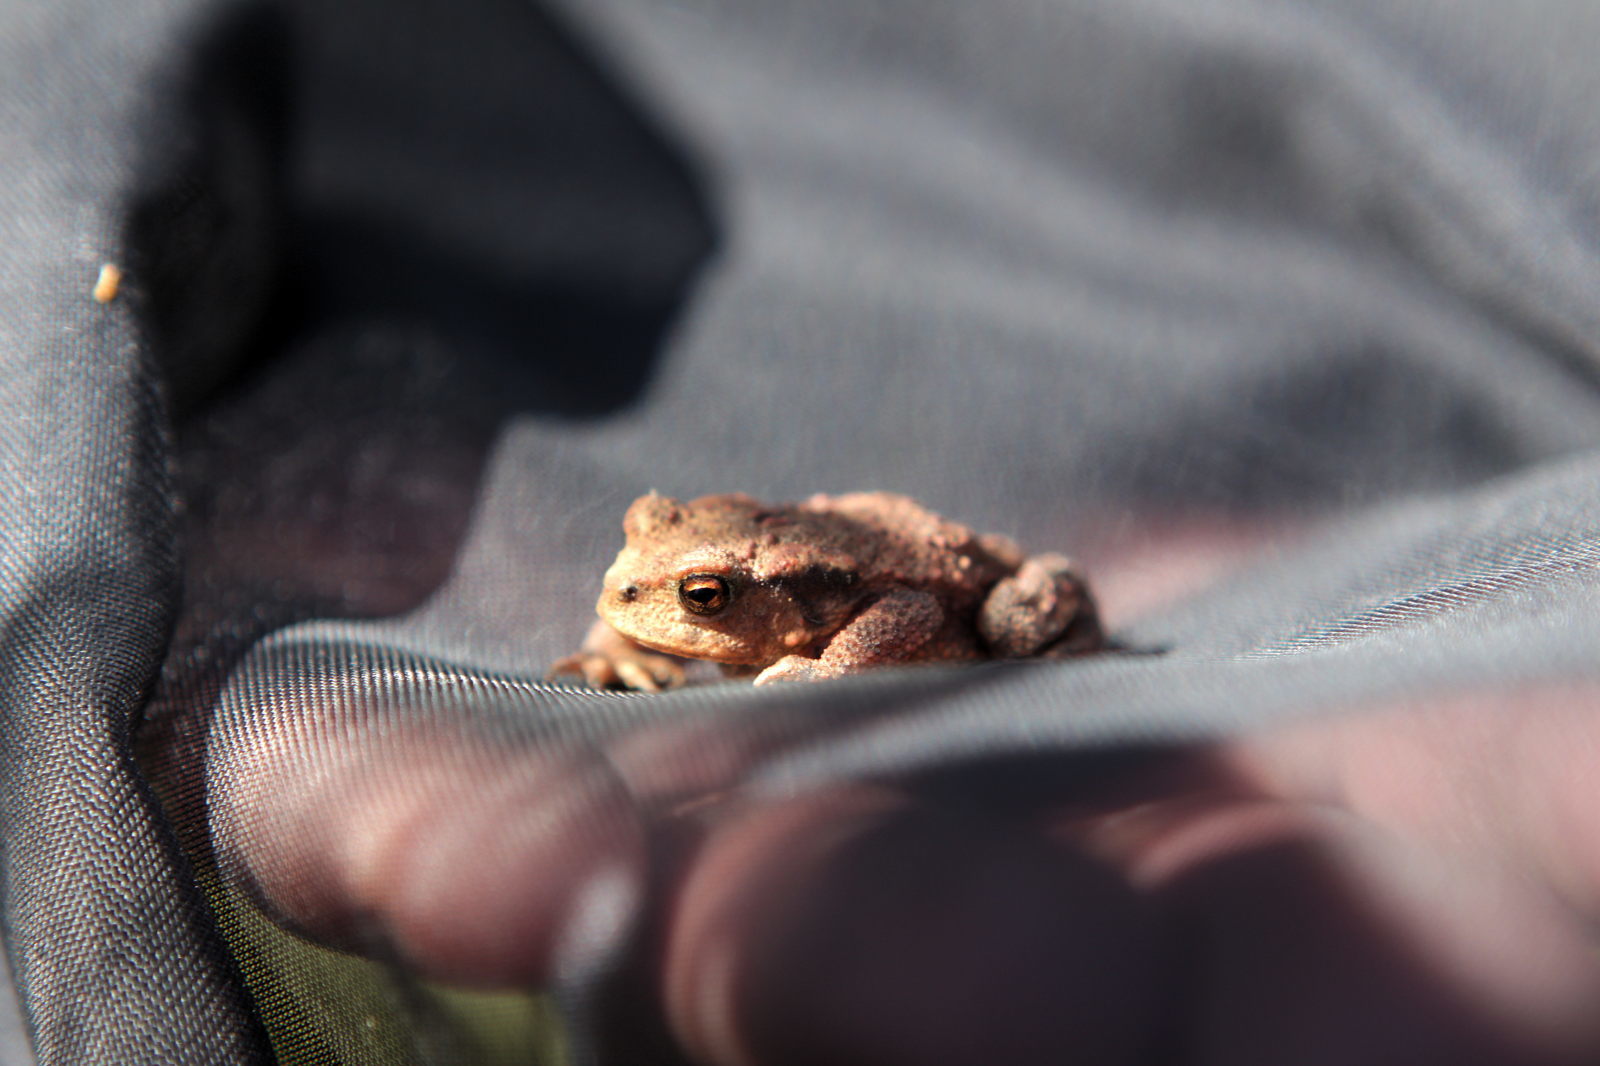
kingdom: Animalia
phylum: Chordata
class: Amphibia
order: Anura
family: Bufonidae
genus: Bufo
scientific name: Bufo spinosus
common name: Western common toad
